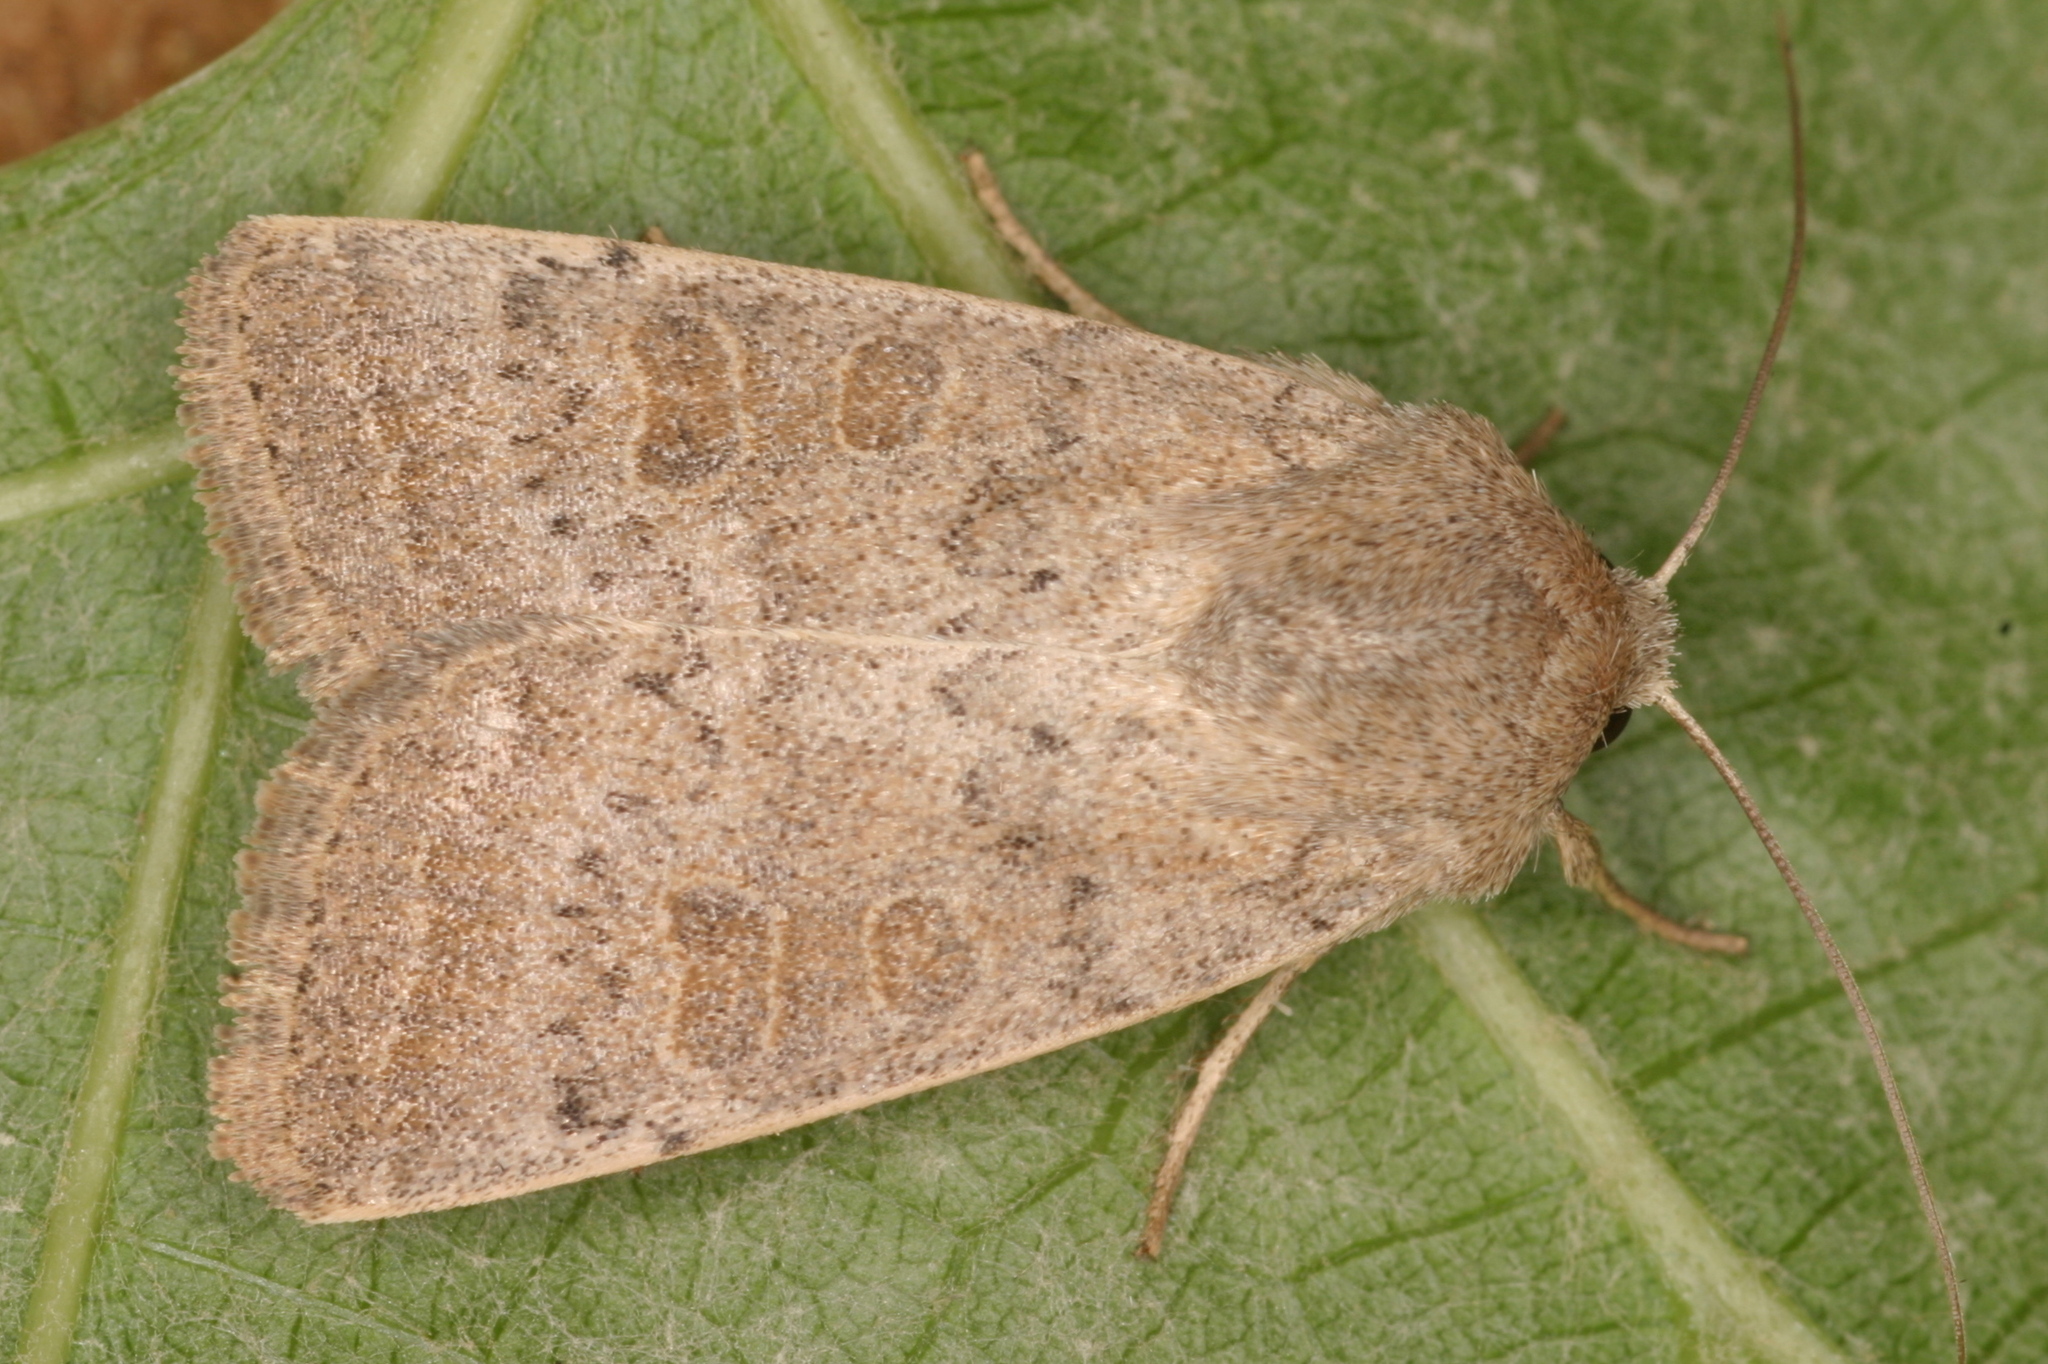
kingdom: Animalia
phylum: Arthropoda
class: Insecta
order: Lepidoptera
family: Noctuidae
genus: Hoplodrina
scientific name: Hoplodrina ambigua
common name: Vine's rustic
